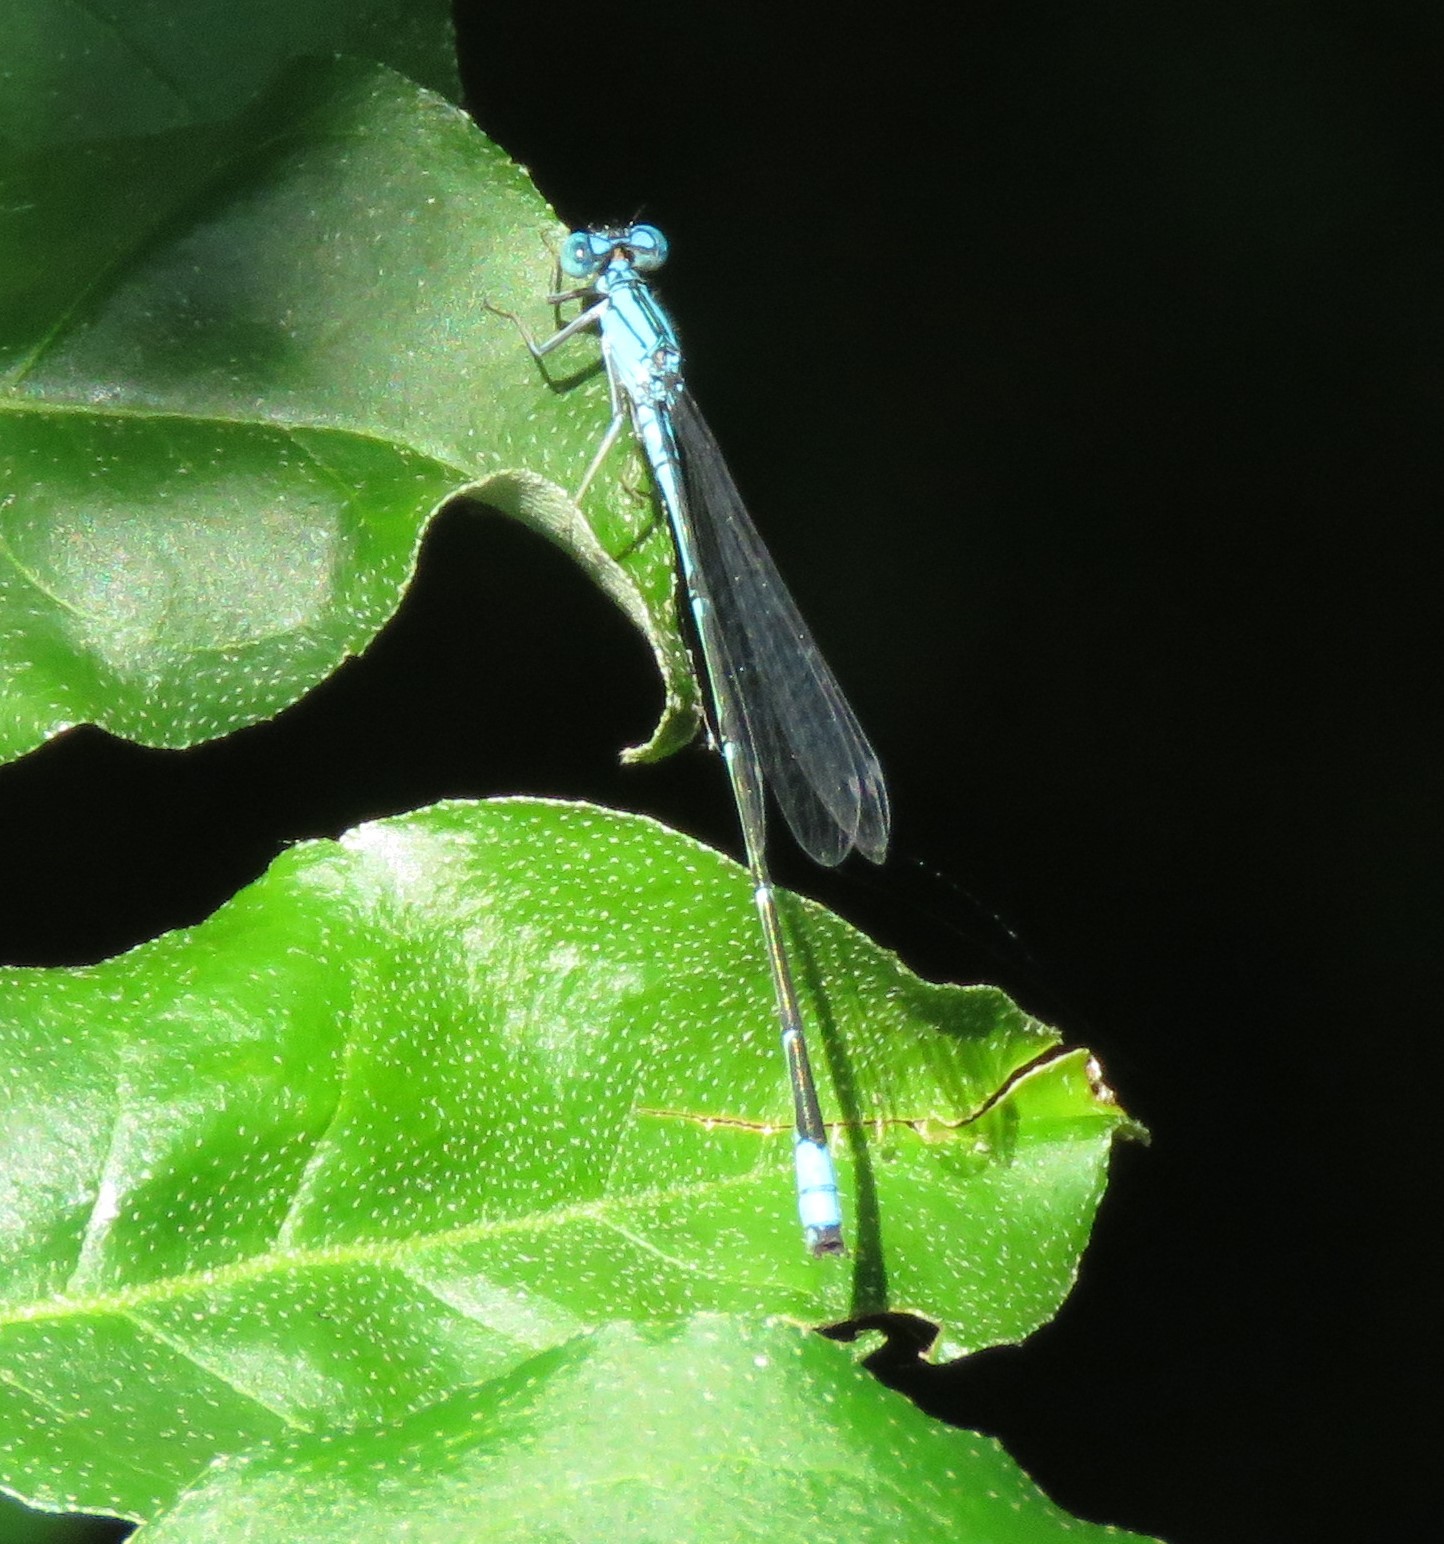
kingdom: Animalia
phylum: Arthropoda
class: Insecta
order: Odonata
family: Coenagrionidae
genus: Enallagma
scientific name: Enallagma traviatum
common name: Slender bluet
